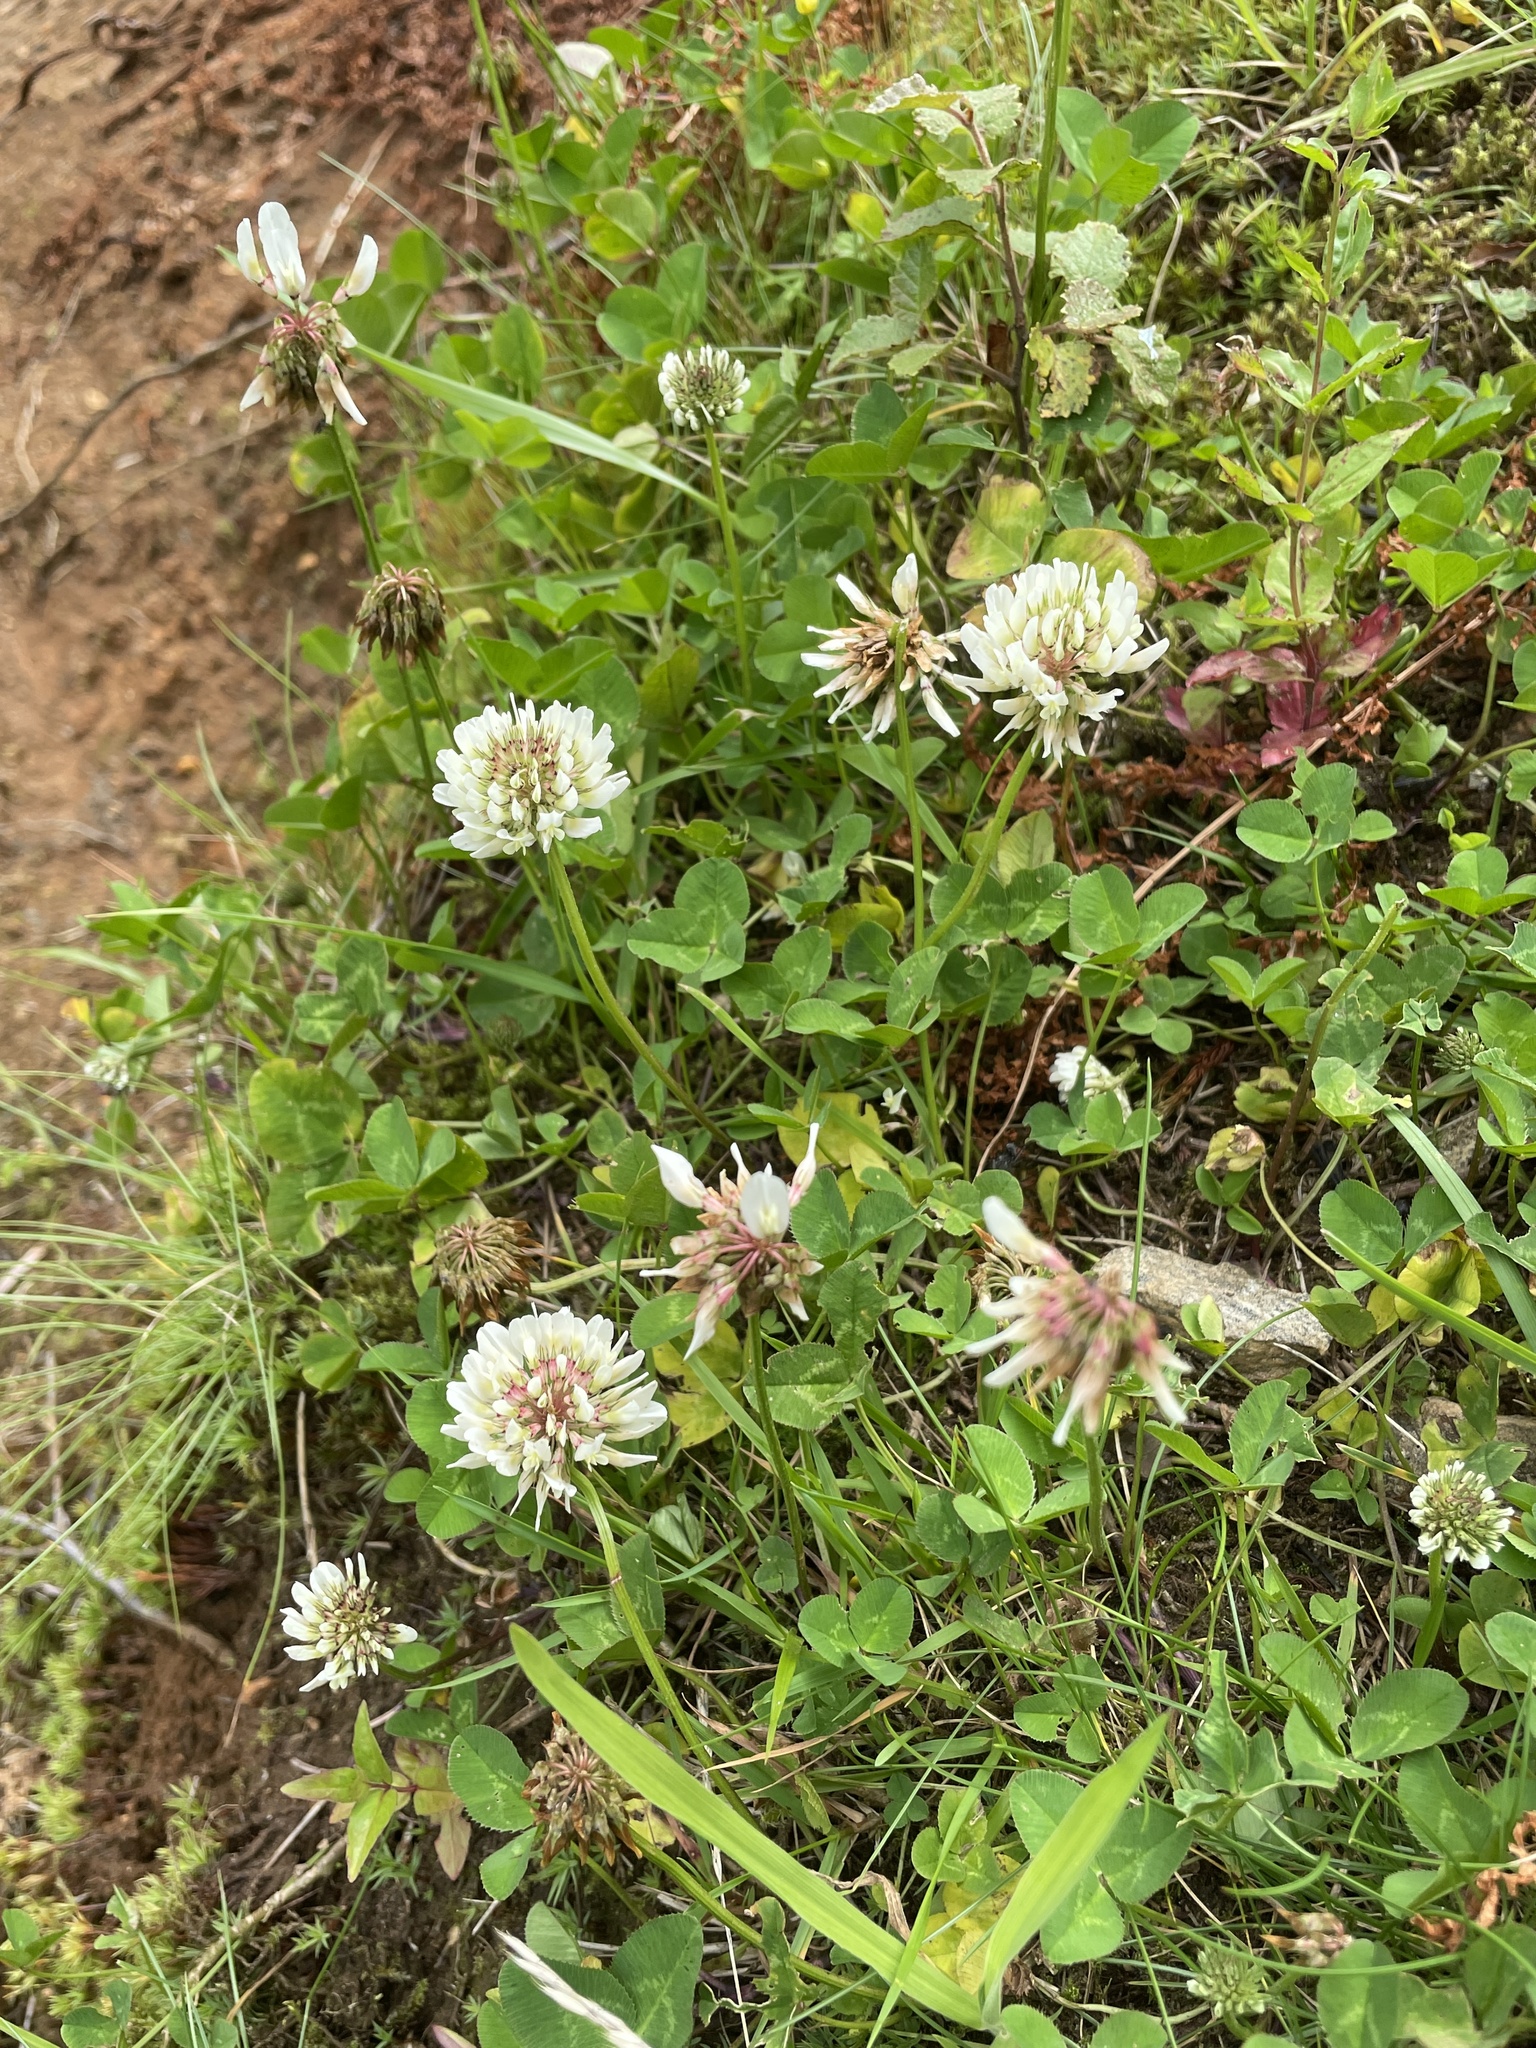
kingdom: Plantae
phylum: Tracheophyta
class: Magnoliopsida
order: Fabales
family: Fabaceae
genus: Trifolium
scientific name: Trifolium repens
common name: White clover
